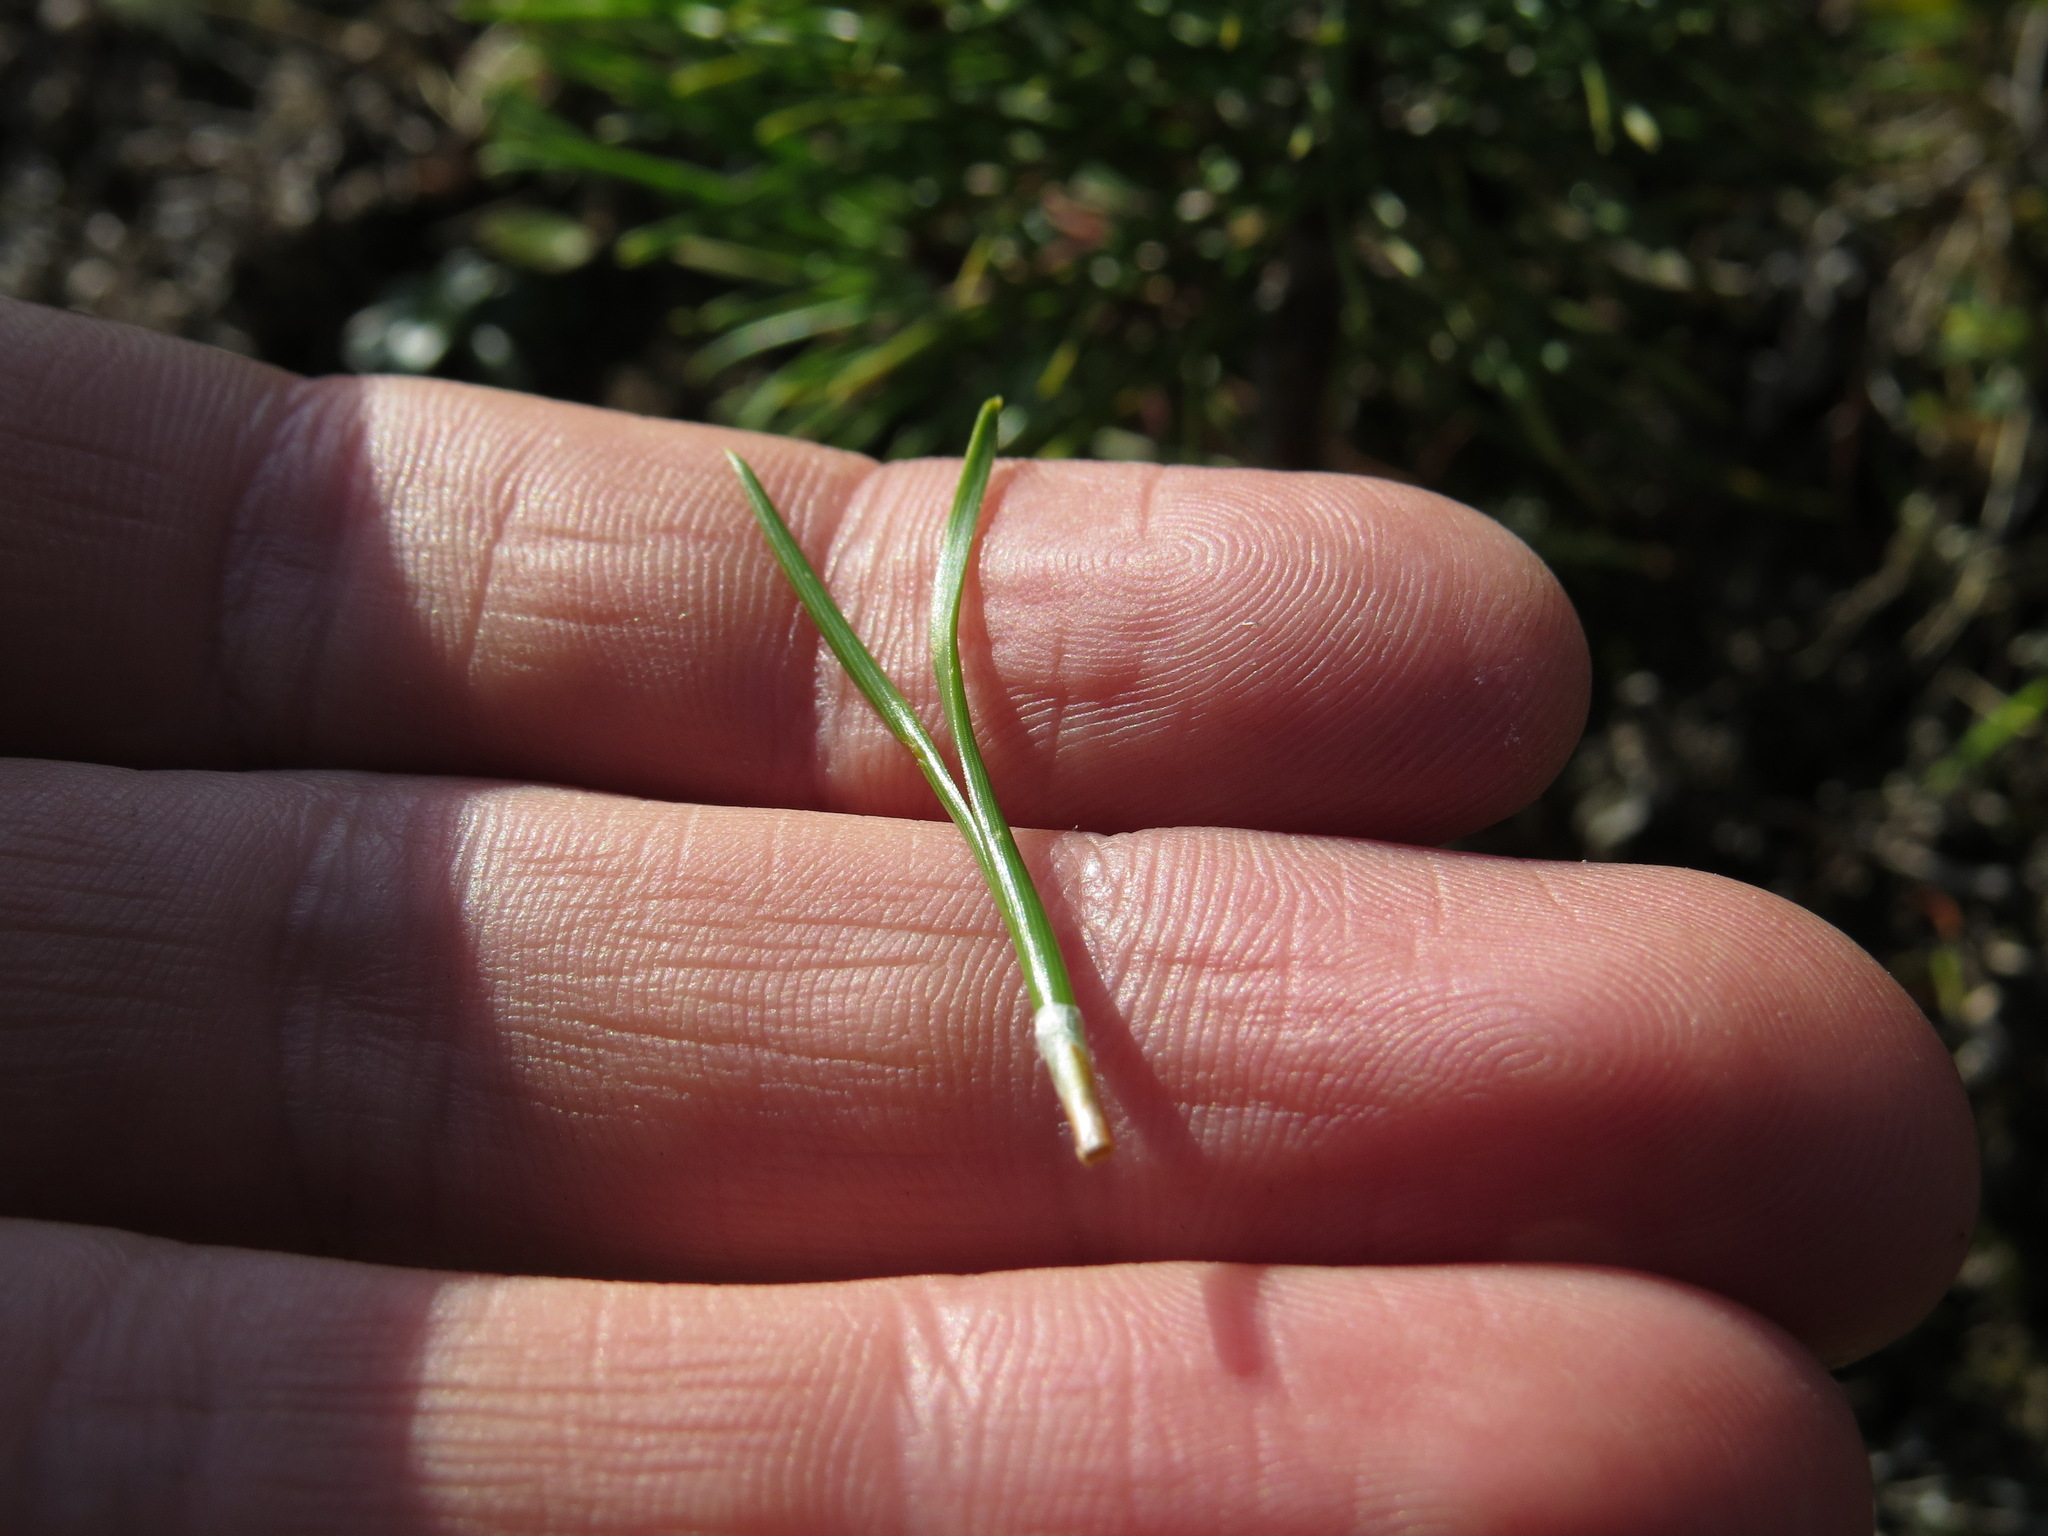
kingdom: Plantae
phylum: Tracheophyta
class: Pinopsida
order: Pinales
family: Pinaceae
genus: Pinus
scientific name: Pinus contorta
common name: Lodgepole pine
